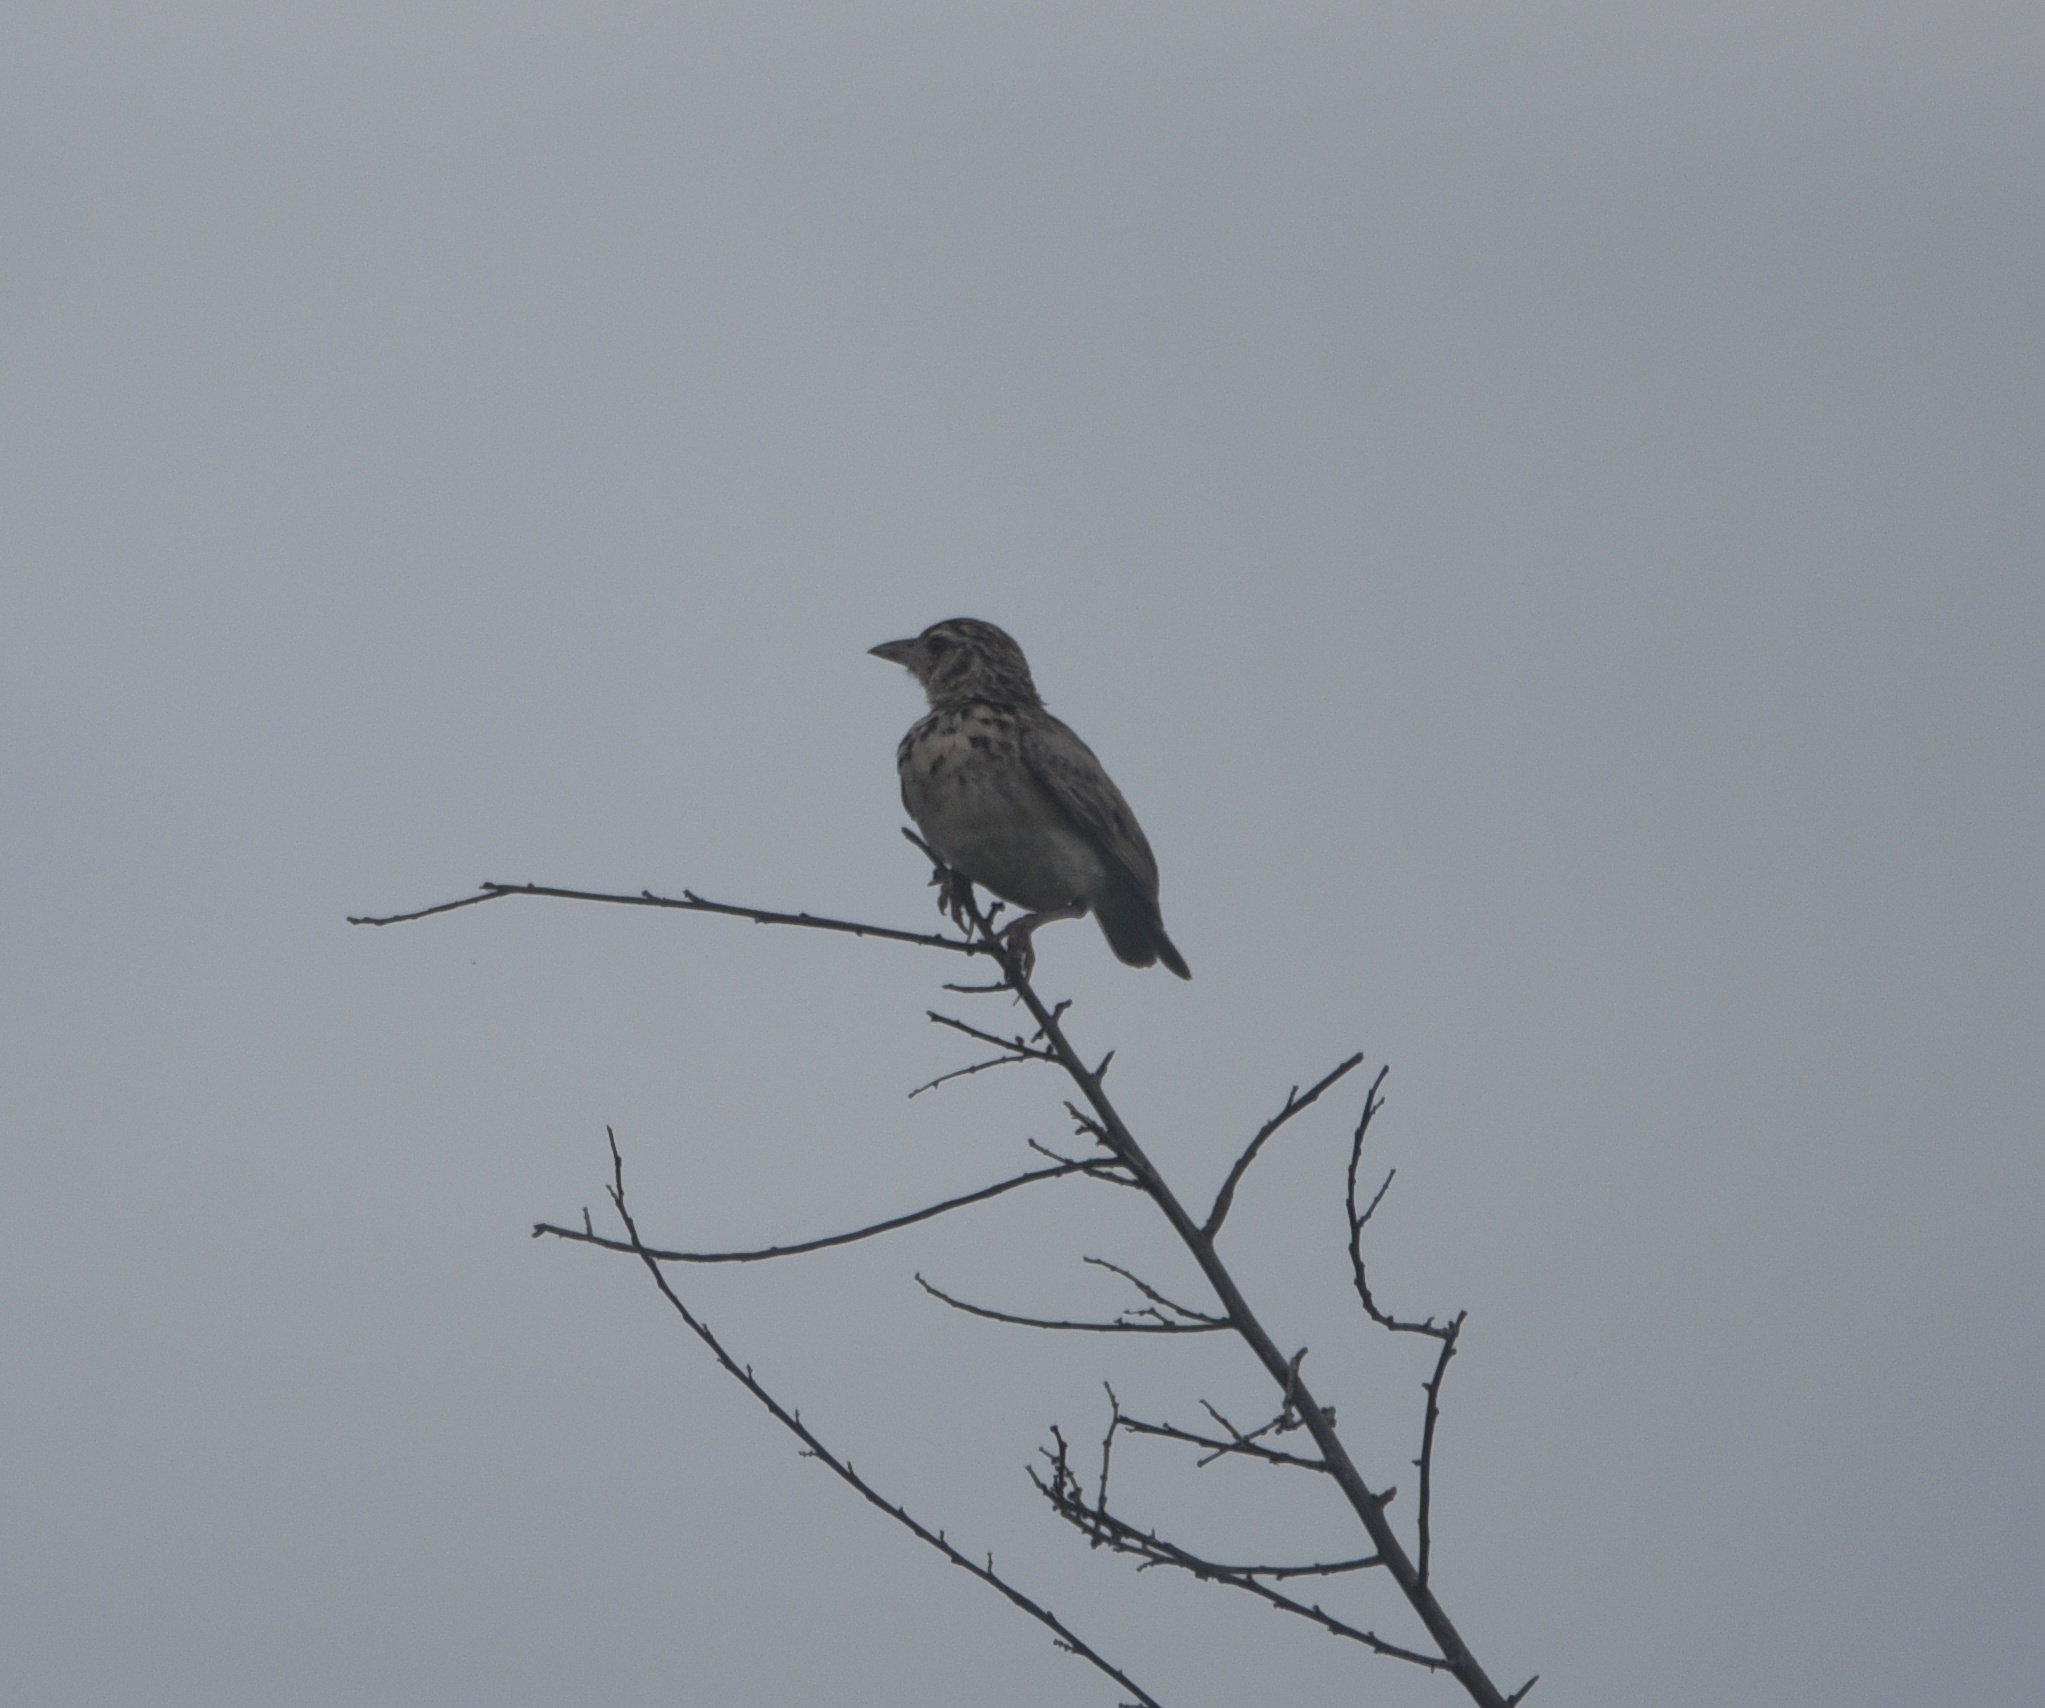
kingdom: Animalia
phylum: Chordata
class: Aves
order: Passeriformes
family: Alaudidae
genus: Mirafra
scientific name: Mirafra affinis
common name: Jerdon's bushlark
